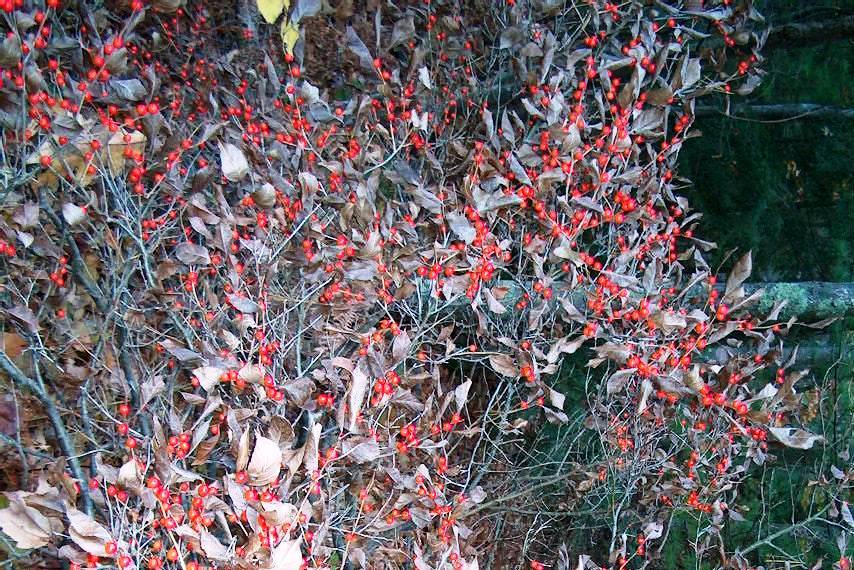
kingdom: Plantae
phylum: Tracheophyta
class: Magnoliopsida
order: Aquifoliales
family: Aquifoliaceae
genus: Ilex
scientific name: Ilex verticillata
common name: Virginia winterberry
